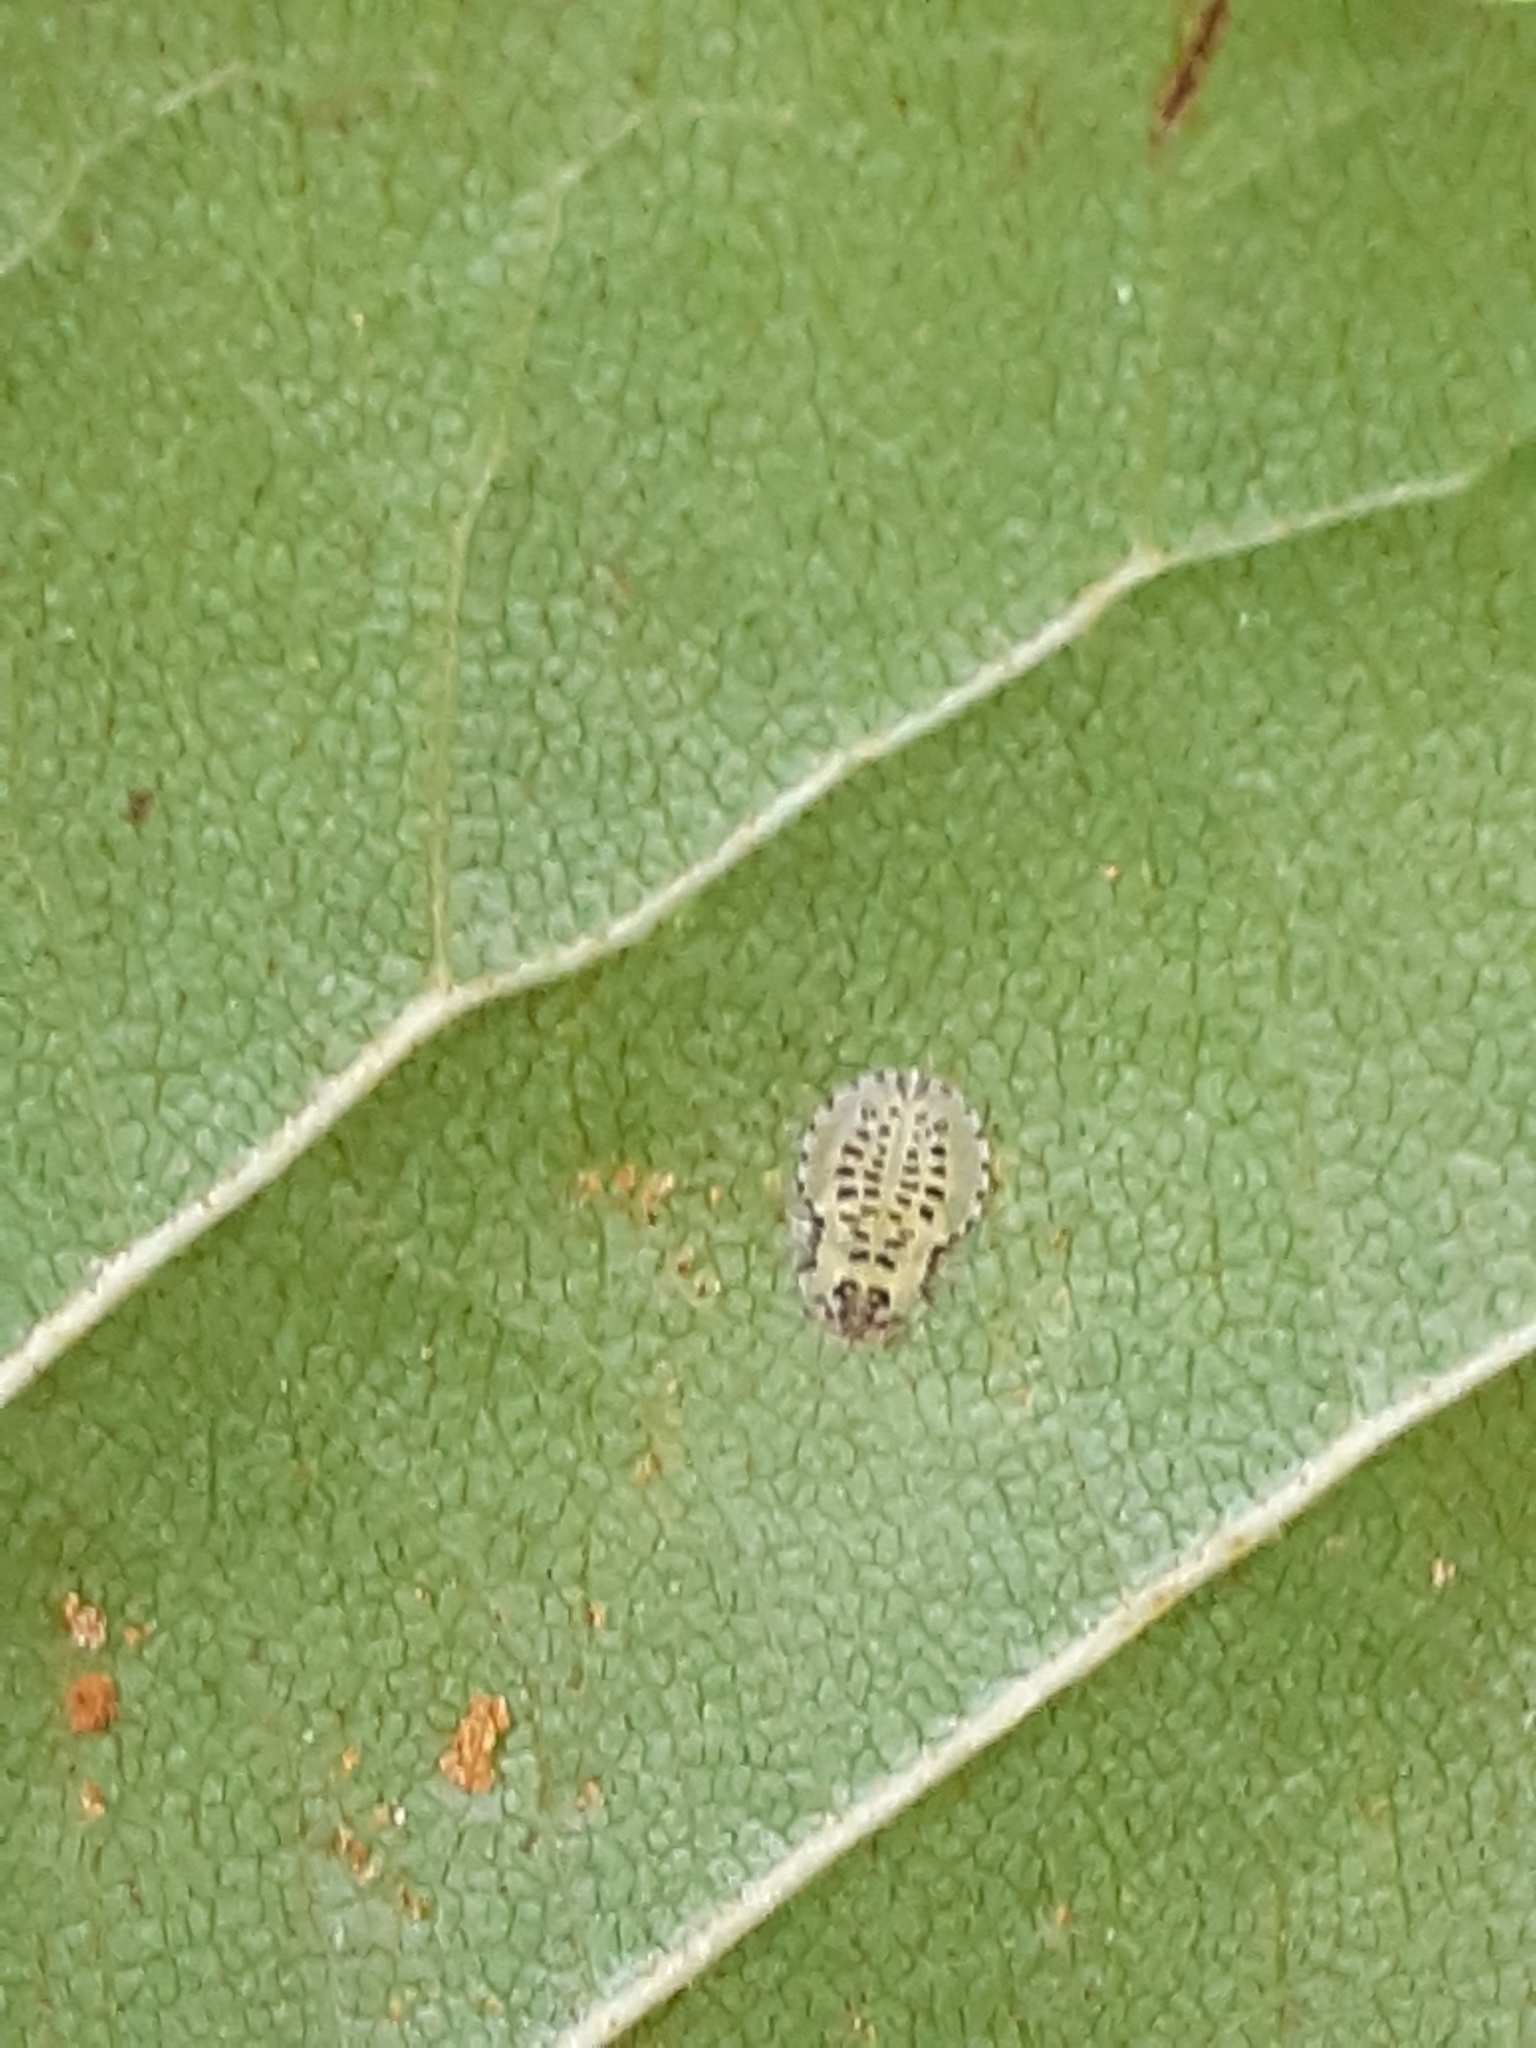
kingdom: Animalia
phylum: Arthropoda
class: Insecta
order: Hemiptera
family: Aphididae
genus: Crypturaphis
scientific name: Crypturaphis grassii
